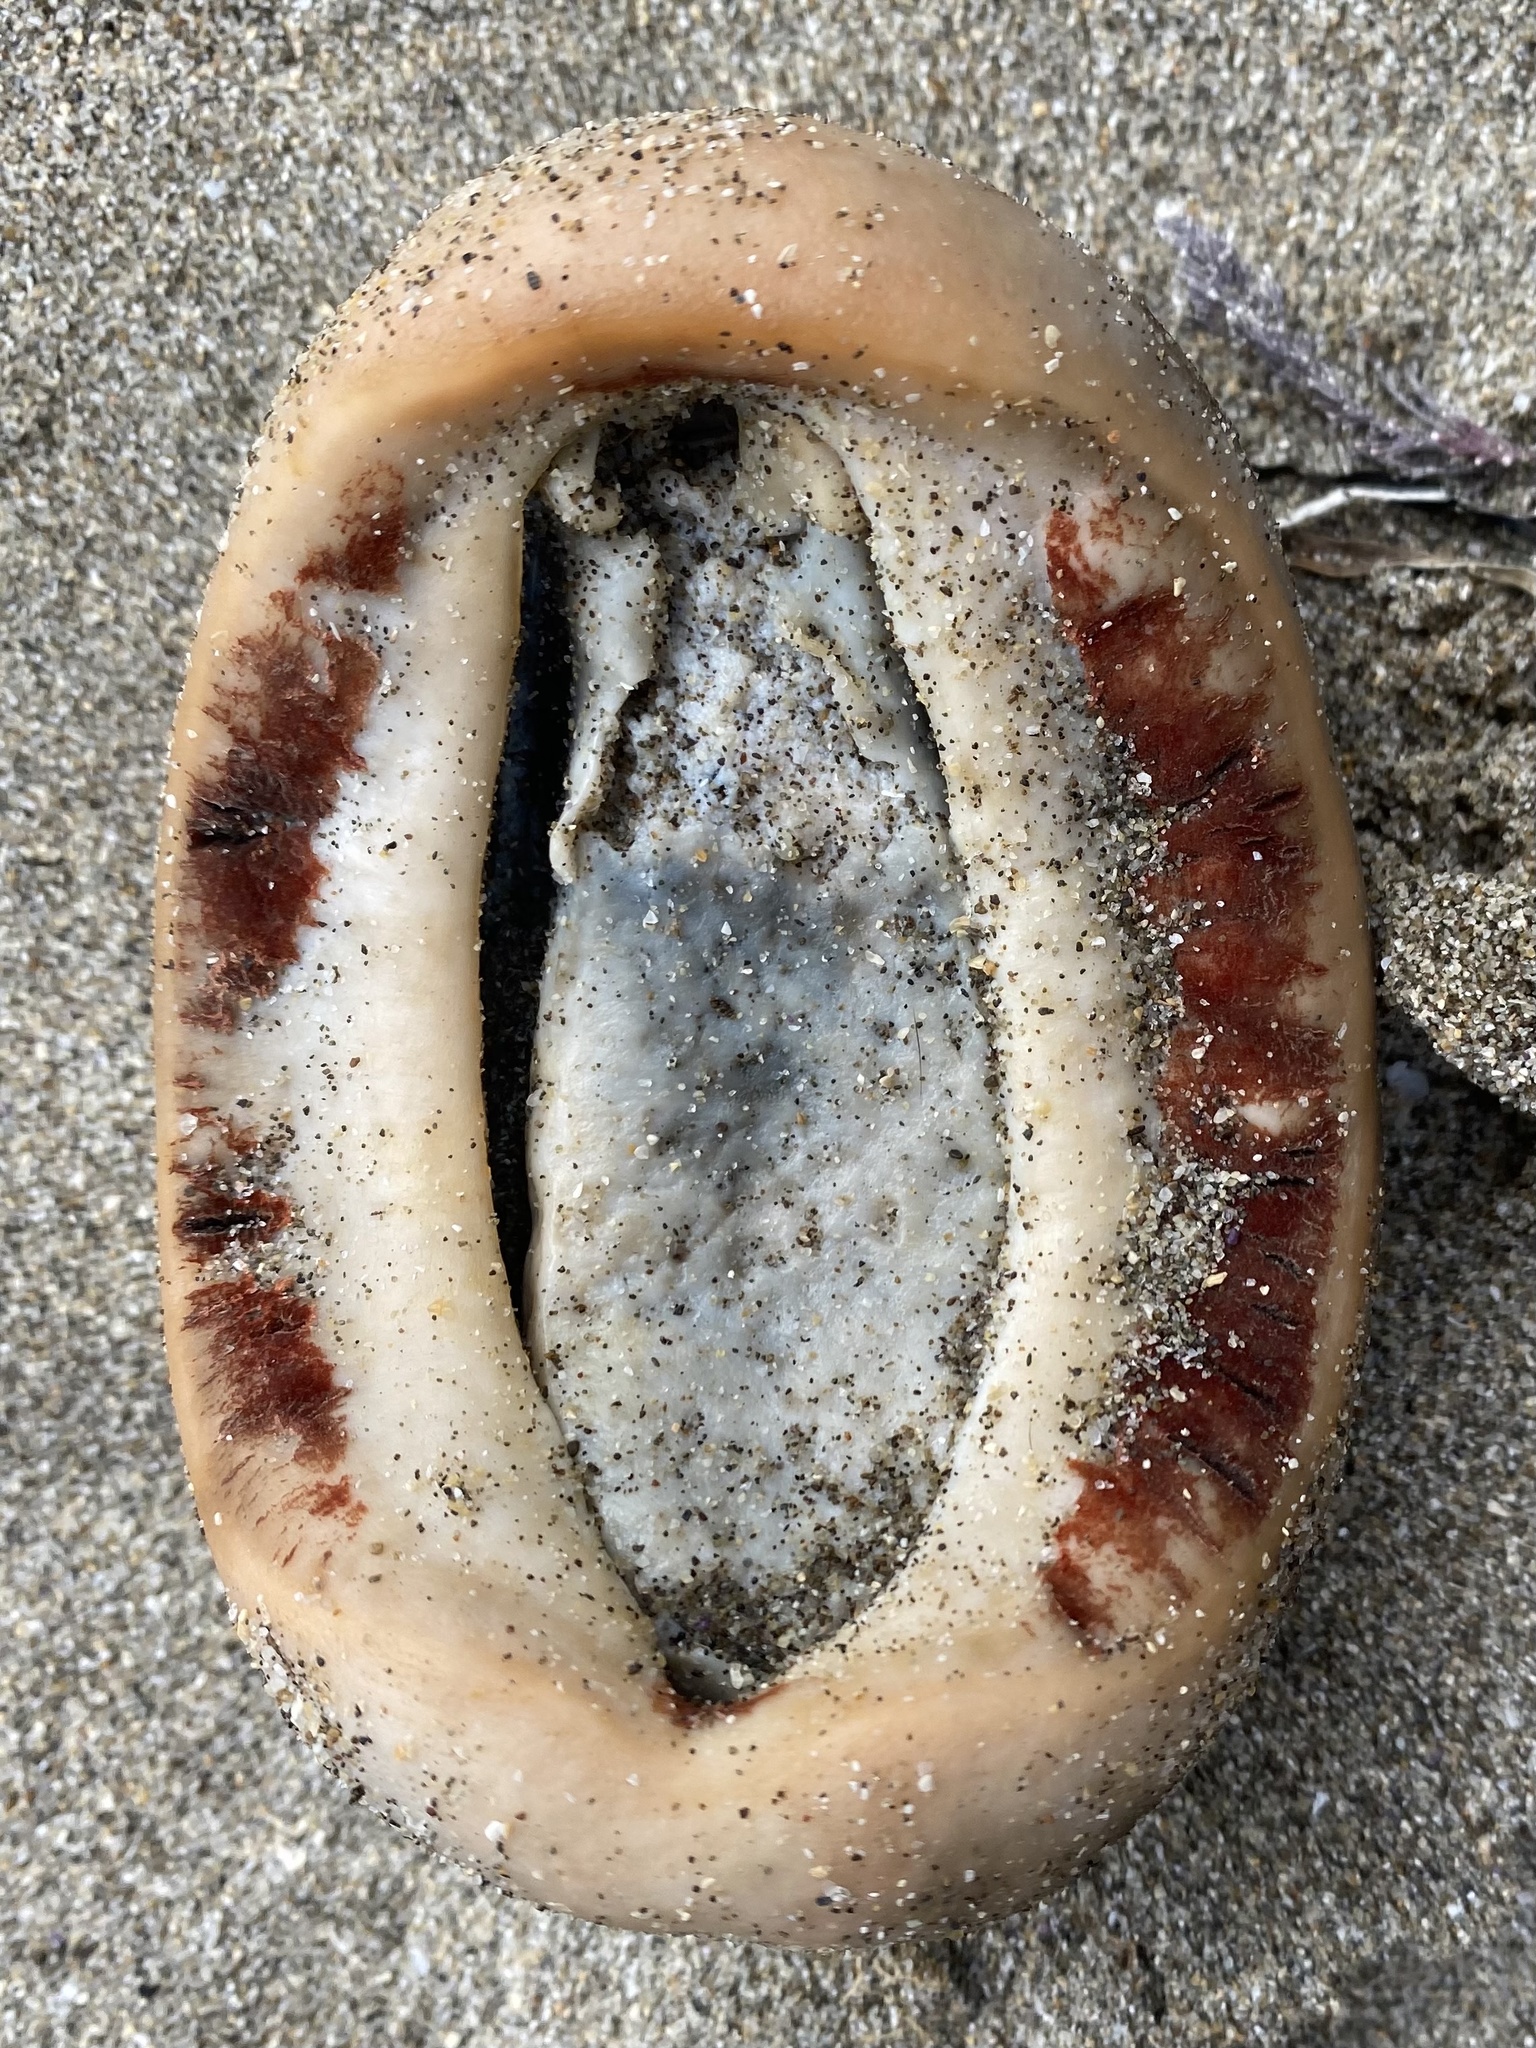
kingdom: Animalia
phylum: Mollusca
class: Polyplacophora
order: Chitonida
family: Acanthochitonidae
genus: Cryptochiton
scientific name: Cryptochiton stelleri
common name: Giant pacific chiton
